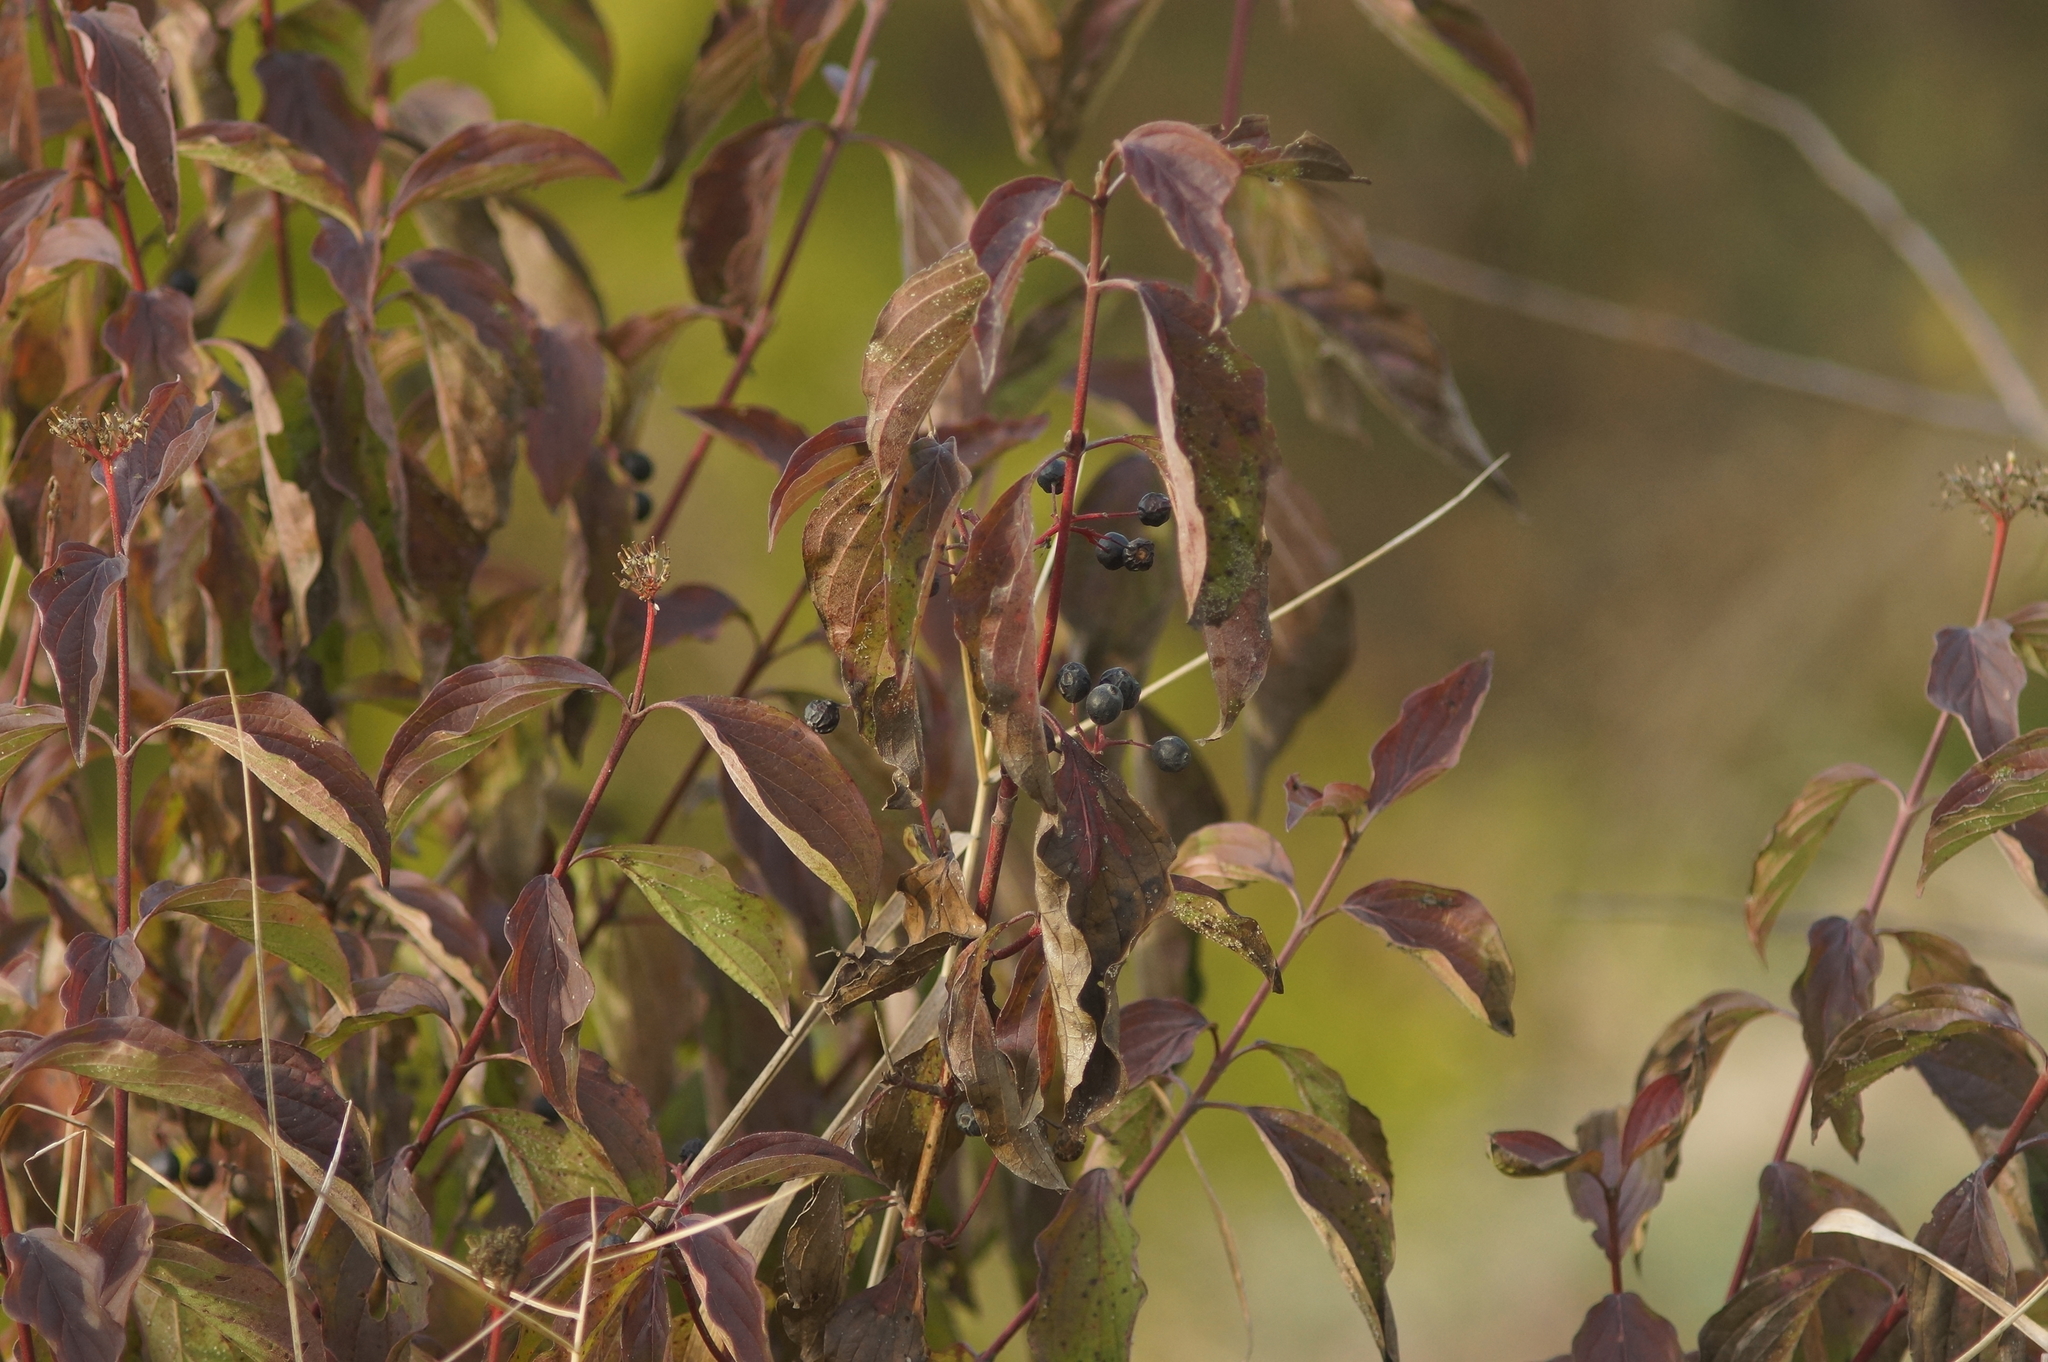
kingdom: Plantae
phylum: Tracheophyta
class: Magnoliopsida
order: Cornales
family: Cornaceae
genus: Cornus
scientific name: Cornus sanguinea
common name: Dogwood
